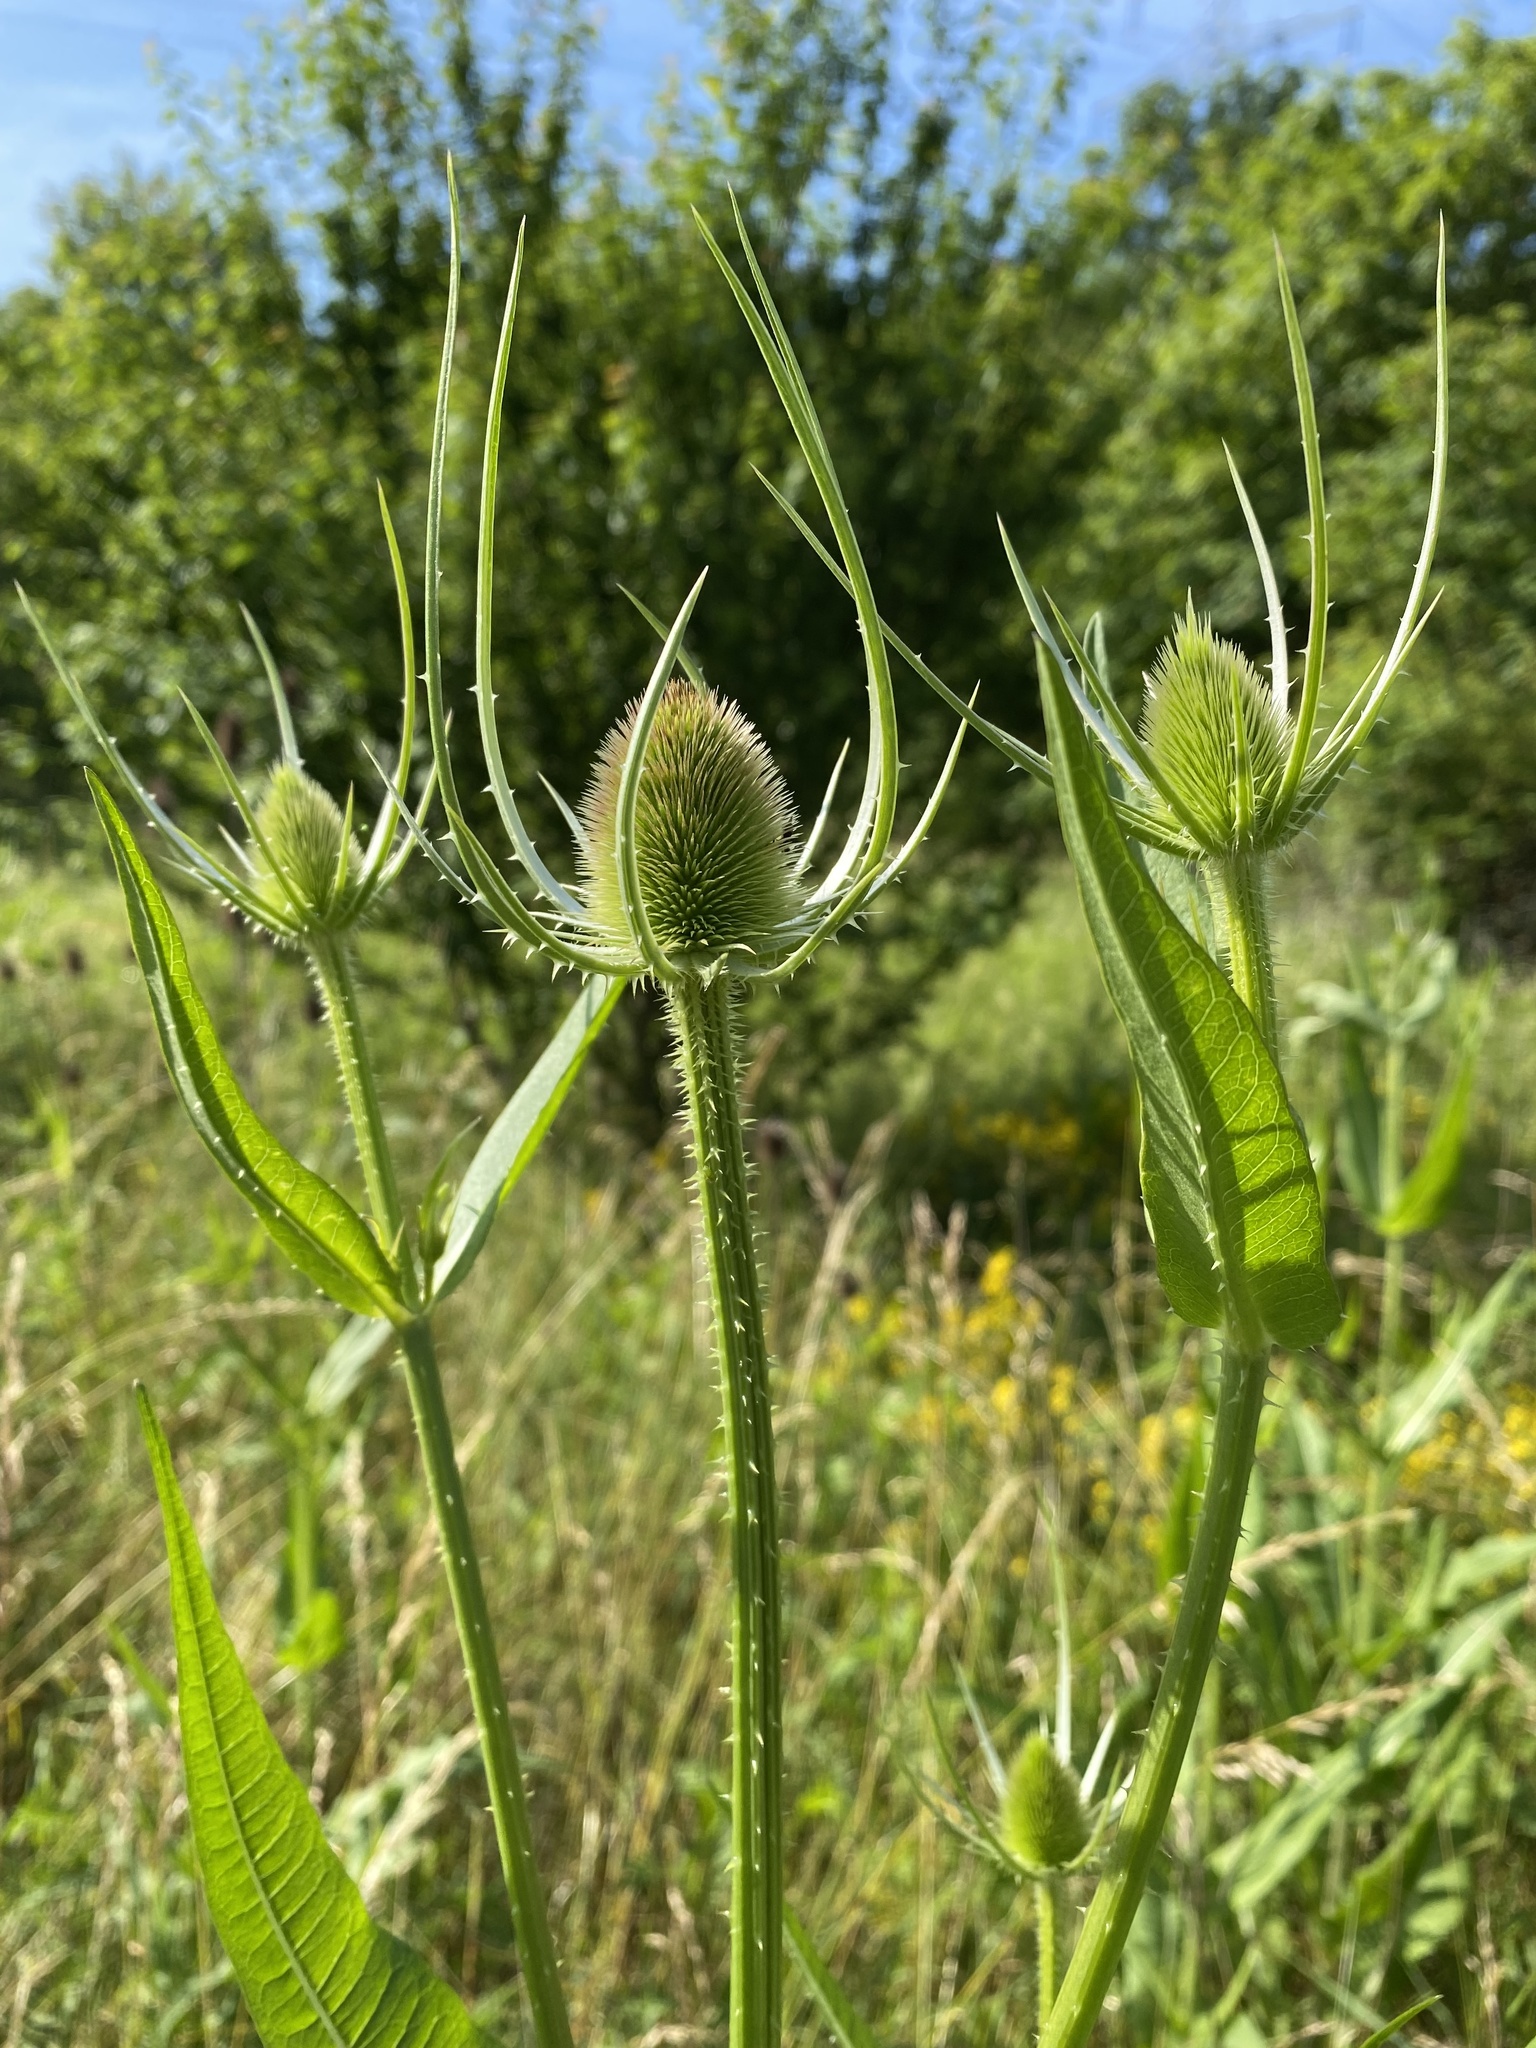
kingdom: Plantae
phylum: Tracheophyta
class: Magnoliopsida
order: Dipsacales
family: Caprifoliaceae
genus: Dipsacus
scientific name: Dipsacus fullonum
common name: Teasel
